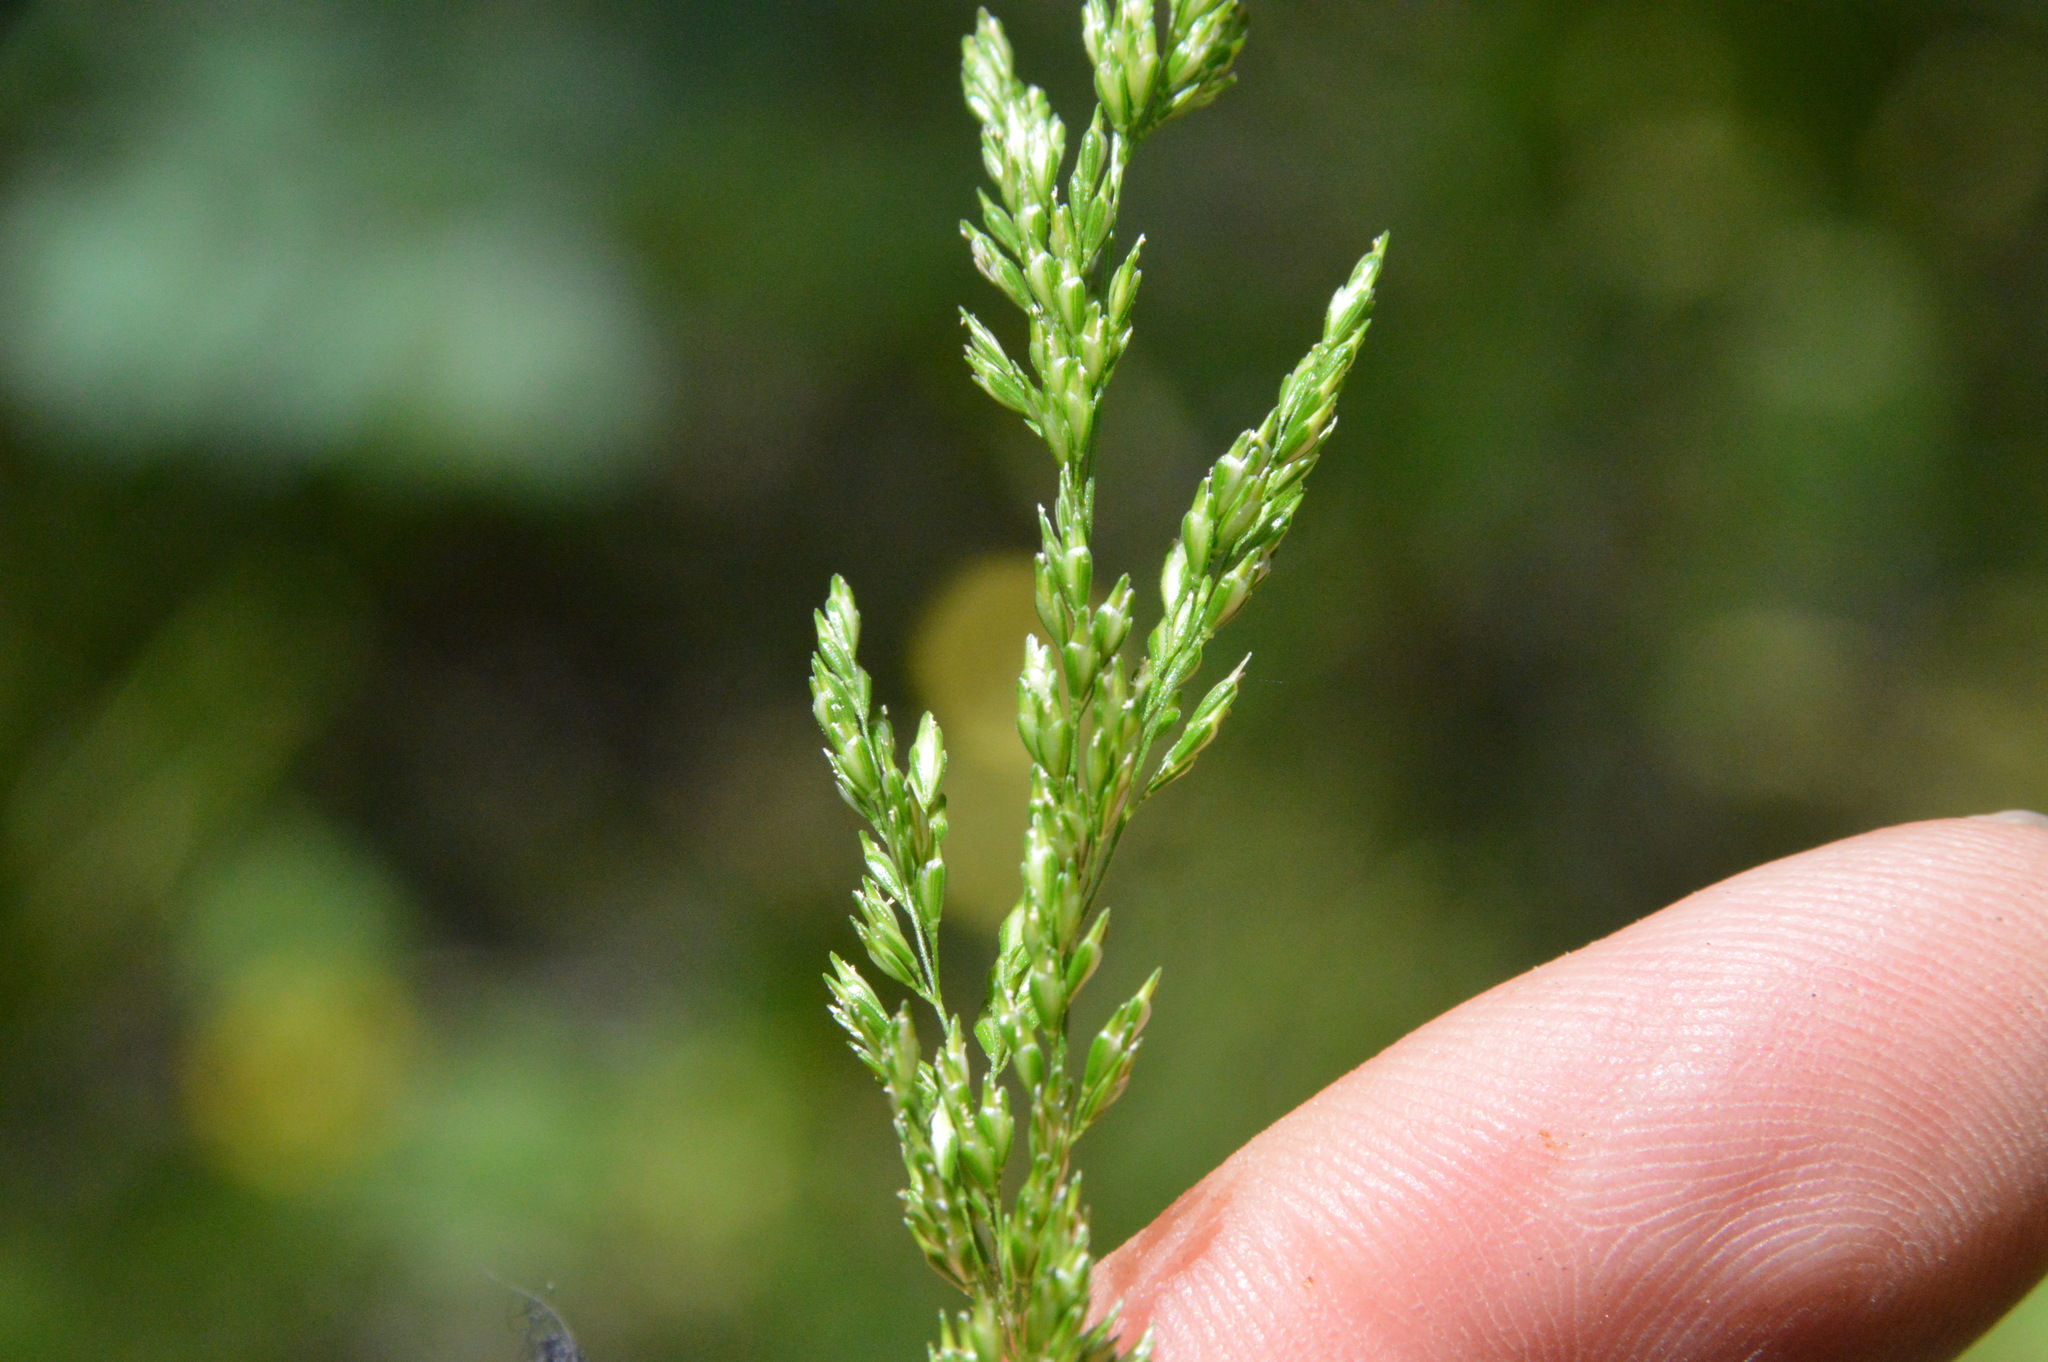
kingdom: Plantae
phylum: Tracheophyta
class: Liliopsida
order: Poales
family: Poaceae
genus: Sphenopholis
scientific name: Sphenopholis obtusata
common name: Prairie grass
